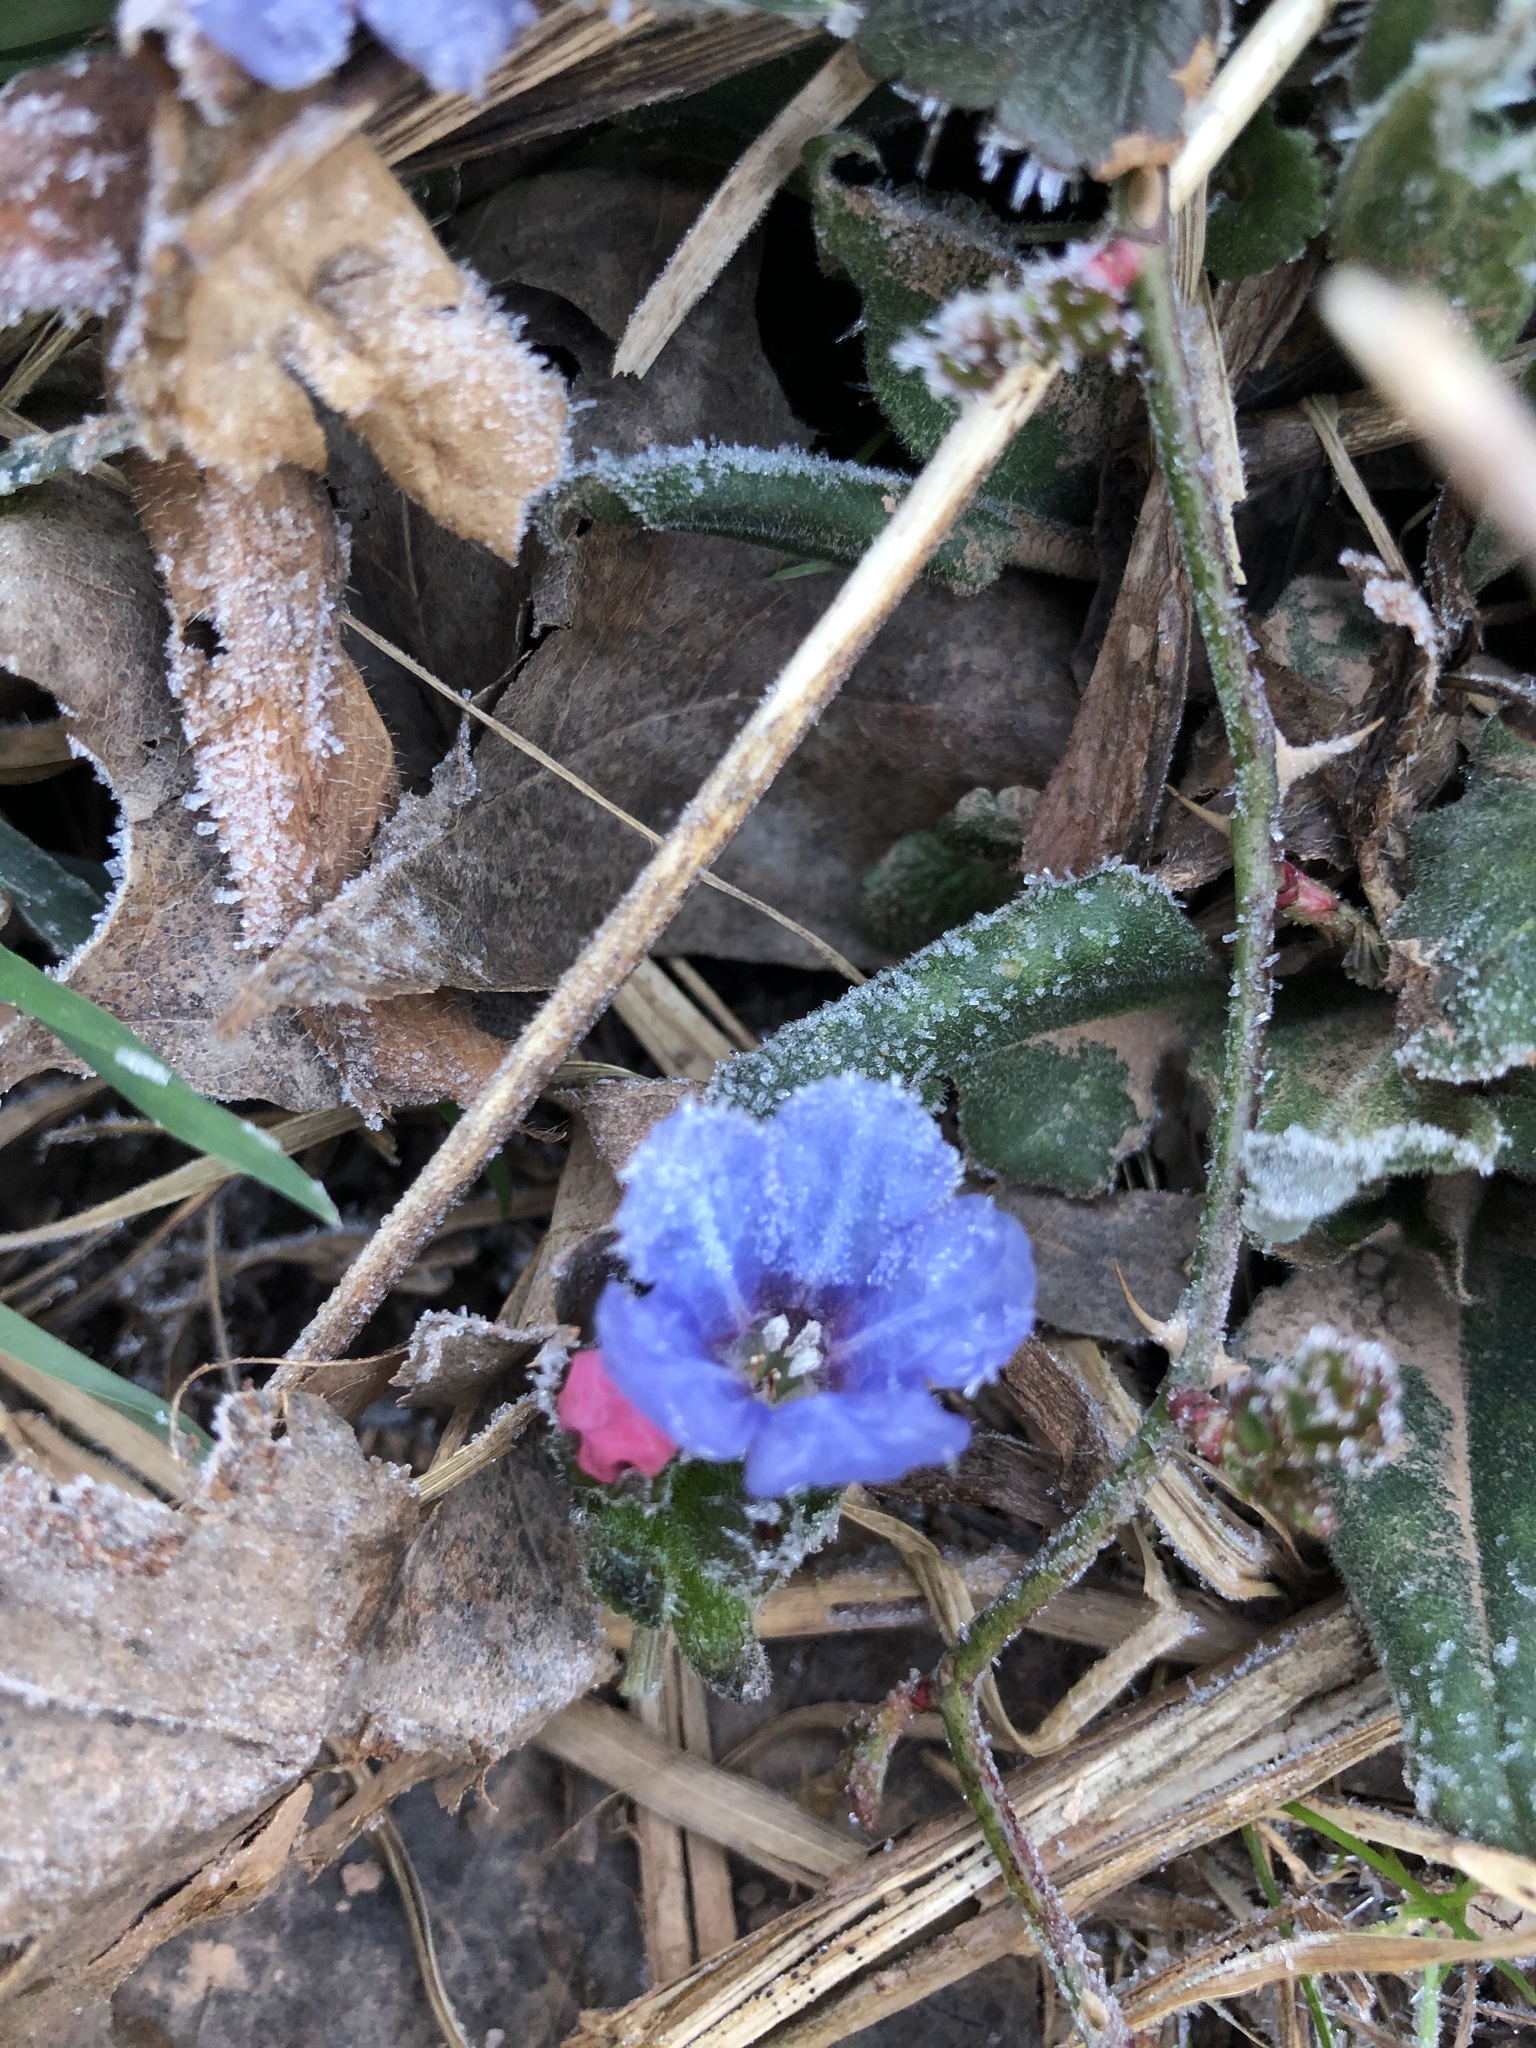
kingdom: Plantae
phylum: Tracheophyta
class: Magnoliopsida
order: Boraginales
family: Boraginaceae
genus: Pulmonaria
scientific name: Pulmonaria officinalis
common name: Lungwort
